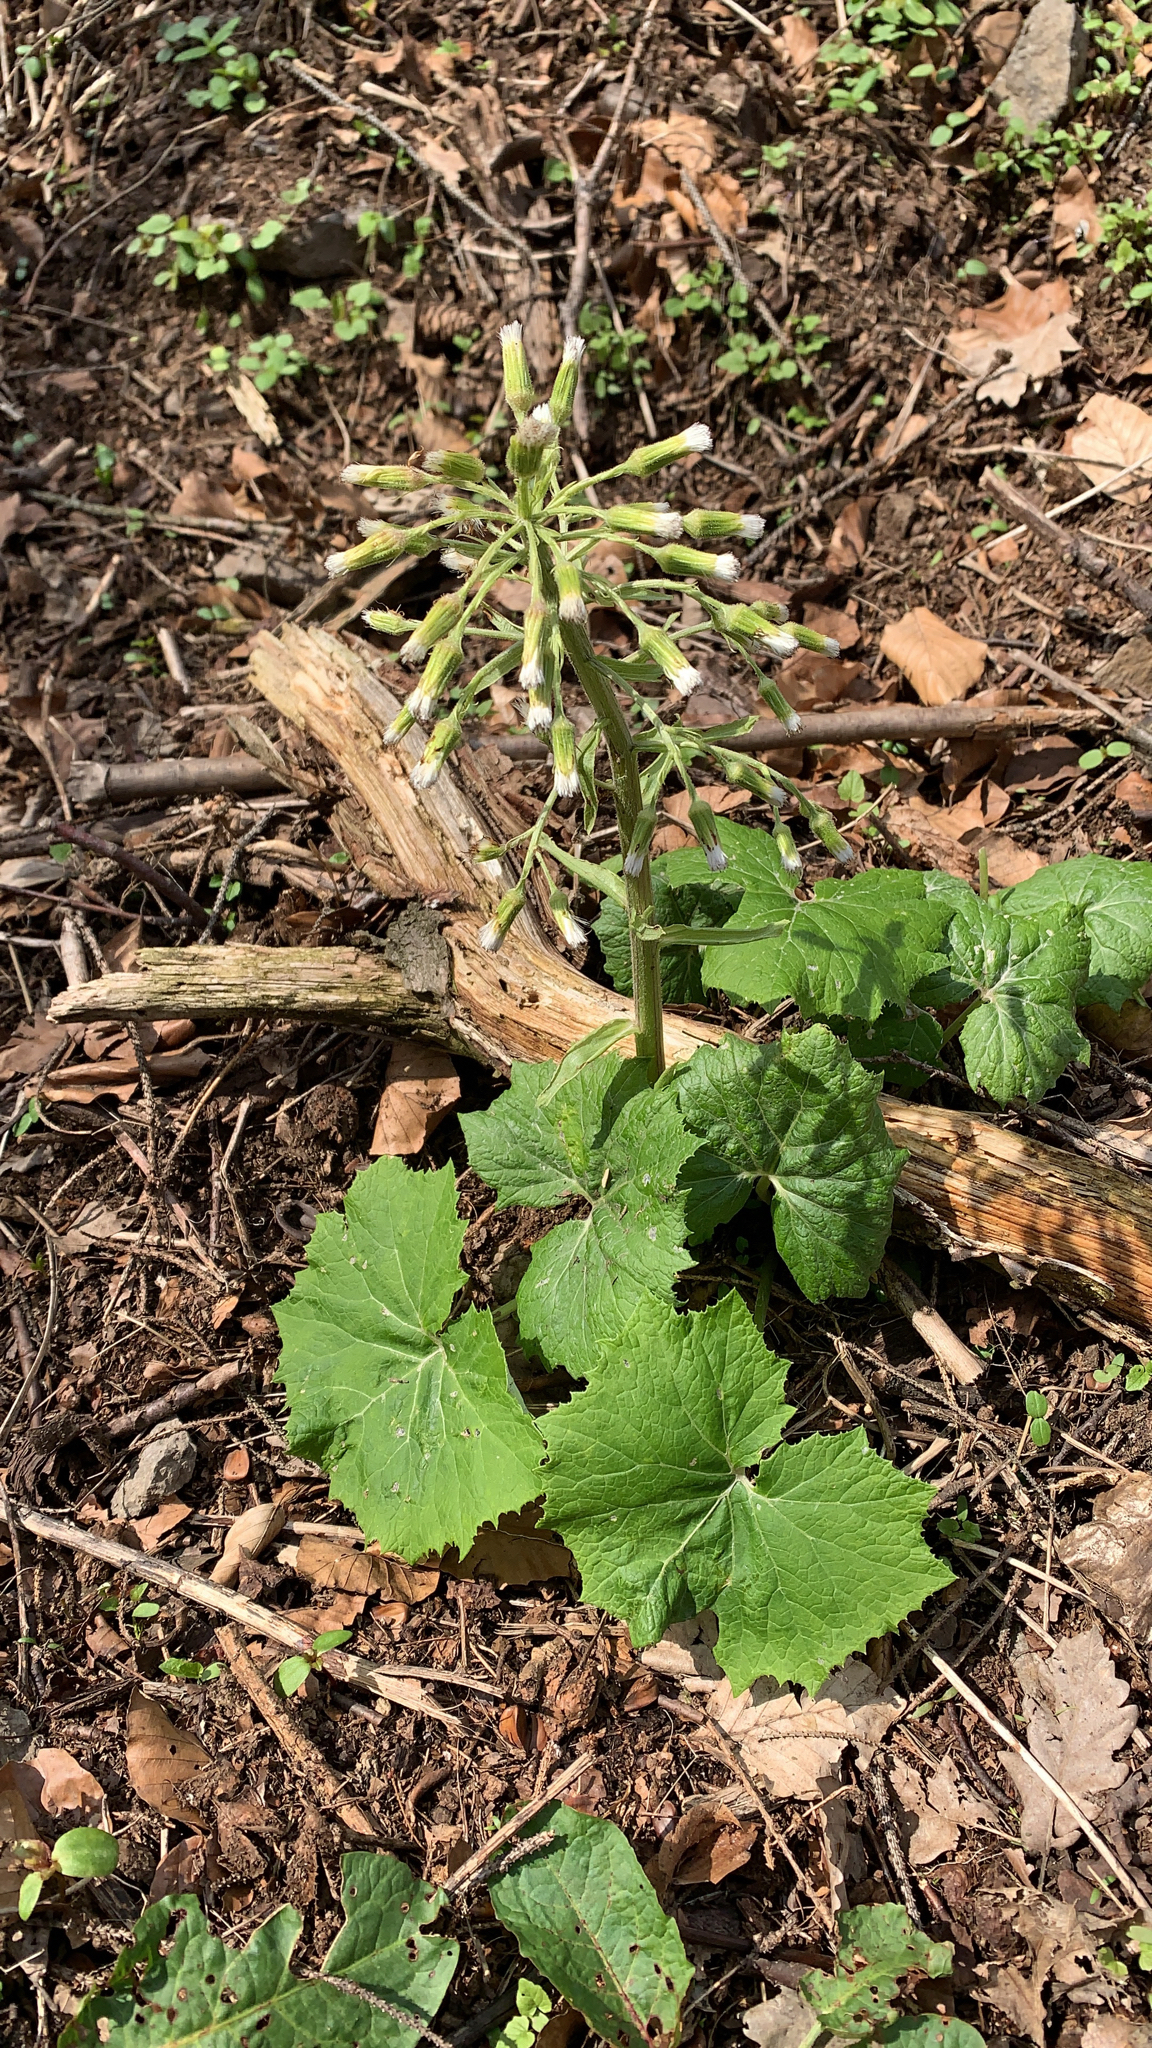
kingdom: Plantae
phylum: Tracheophyta
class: Magnoliopsida
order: Asterales
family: Asteraceae
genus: Petasites
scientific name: Petasites albus
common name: White butterbur
